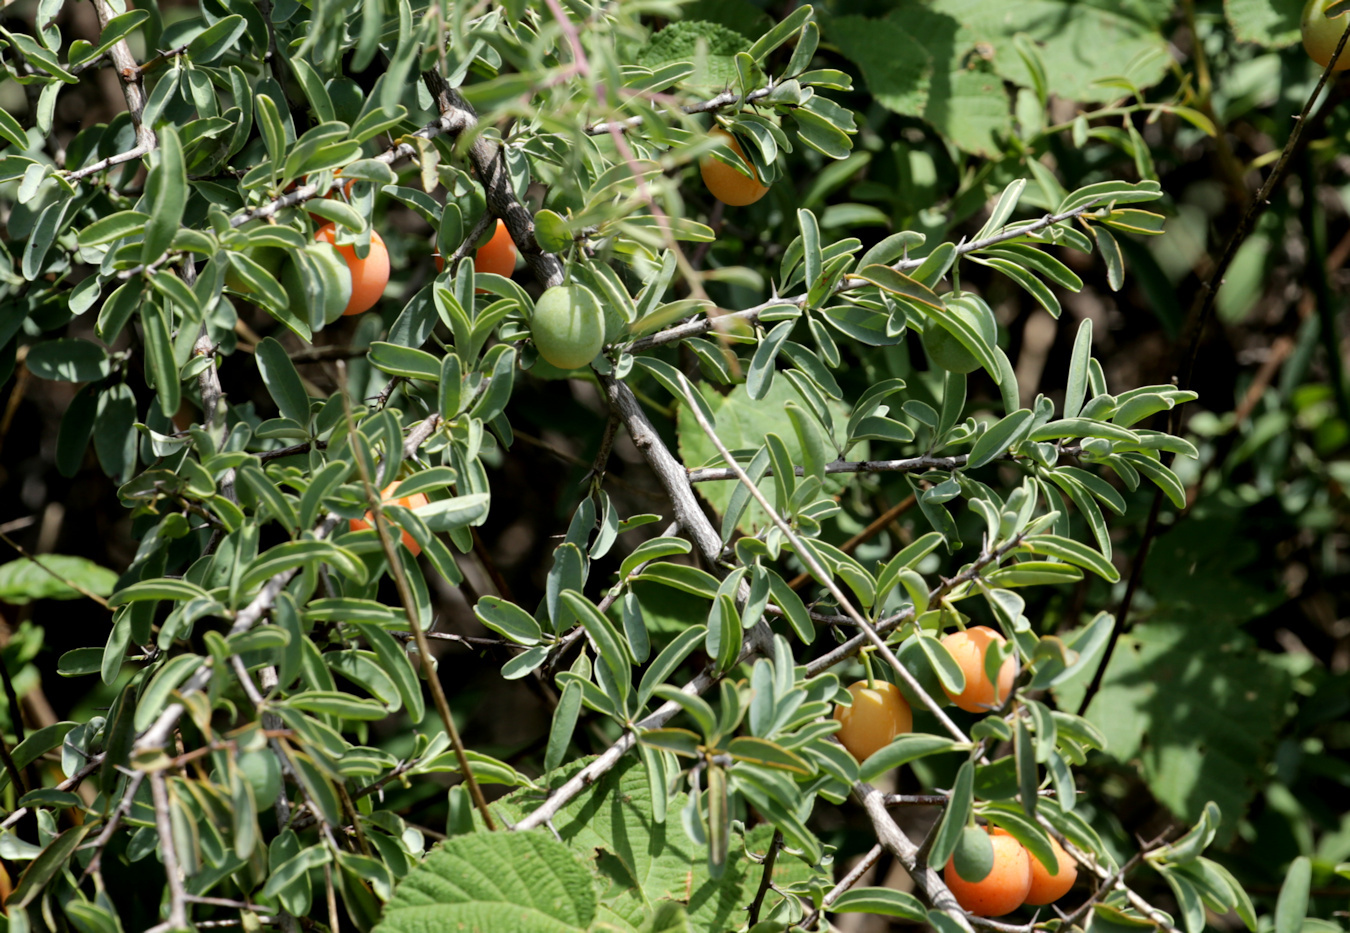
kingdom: Plantae
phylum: Tracheophyta
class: Magnoliopsida
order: Santalales
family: Ximeniaceae
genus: Ximenia
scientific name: Ximenia americana
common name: Tallowwood
